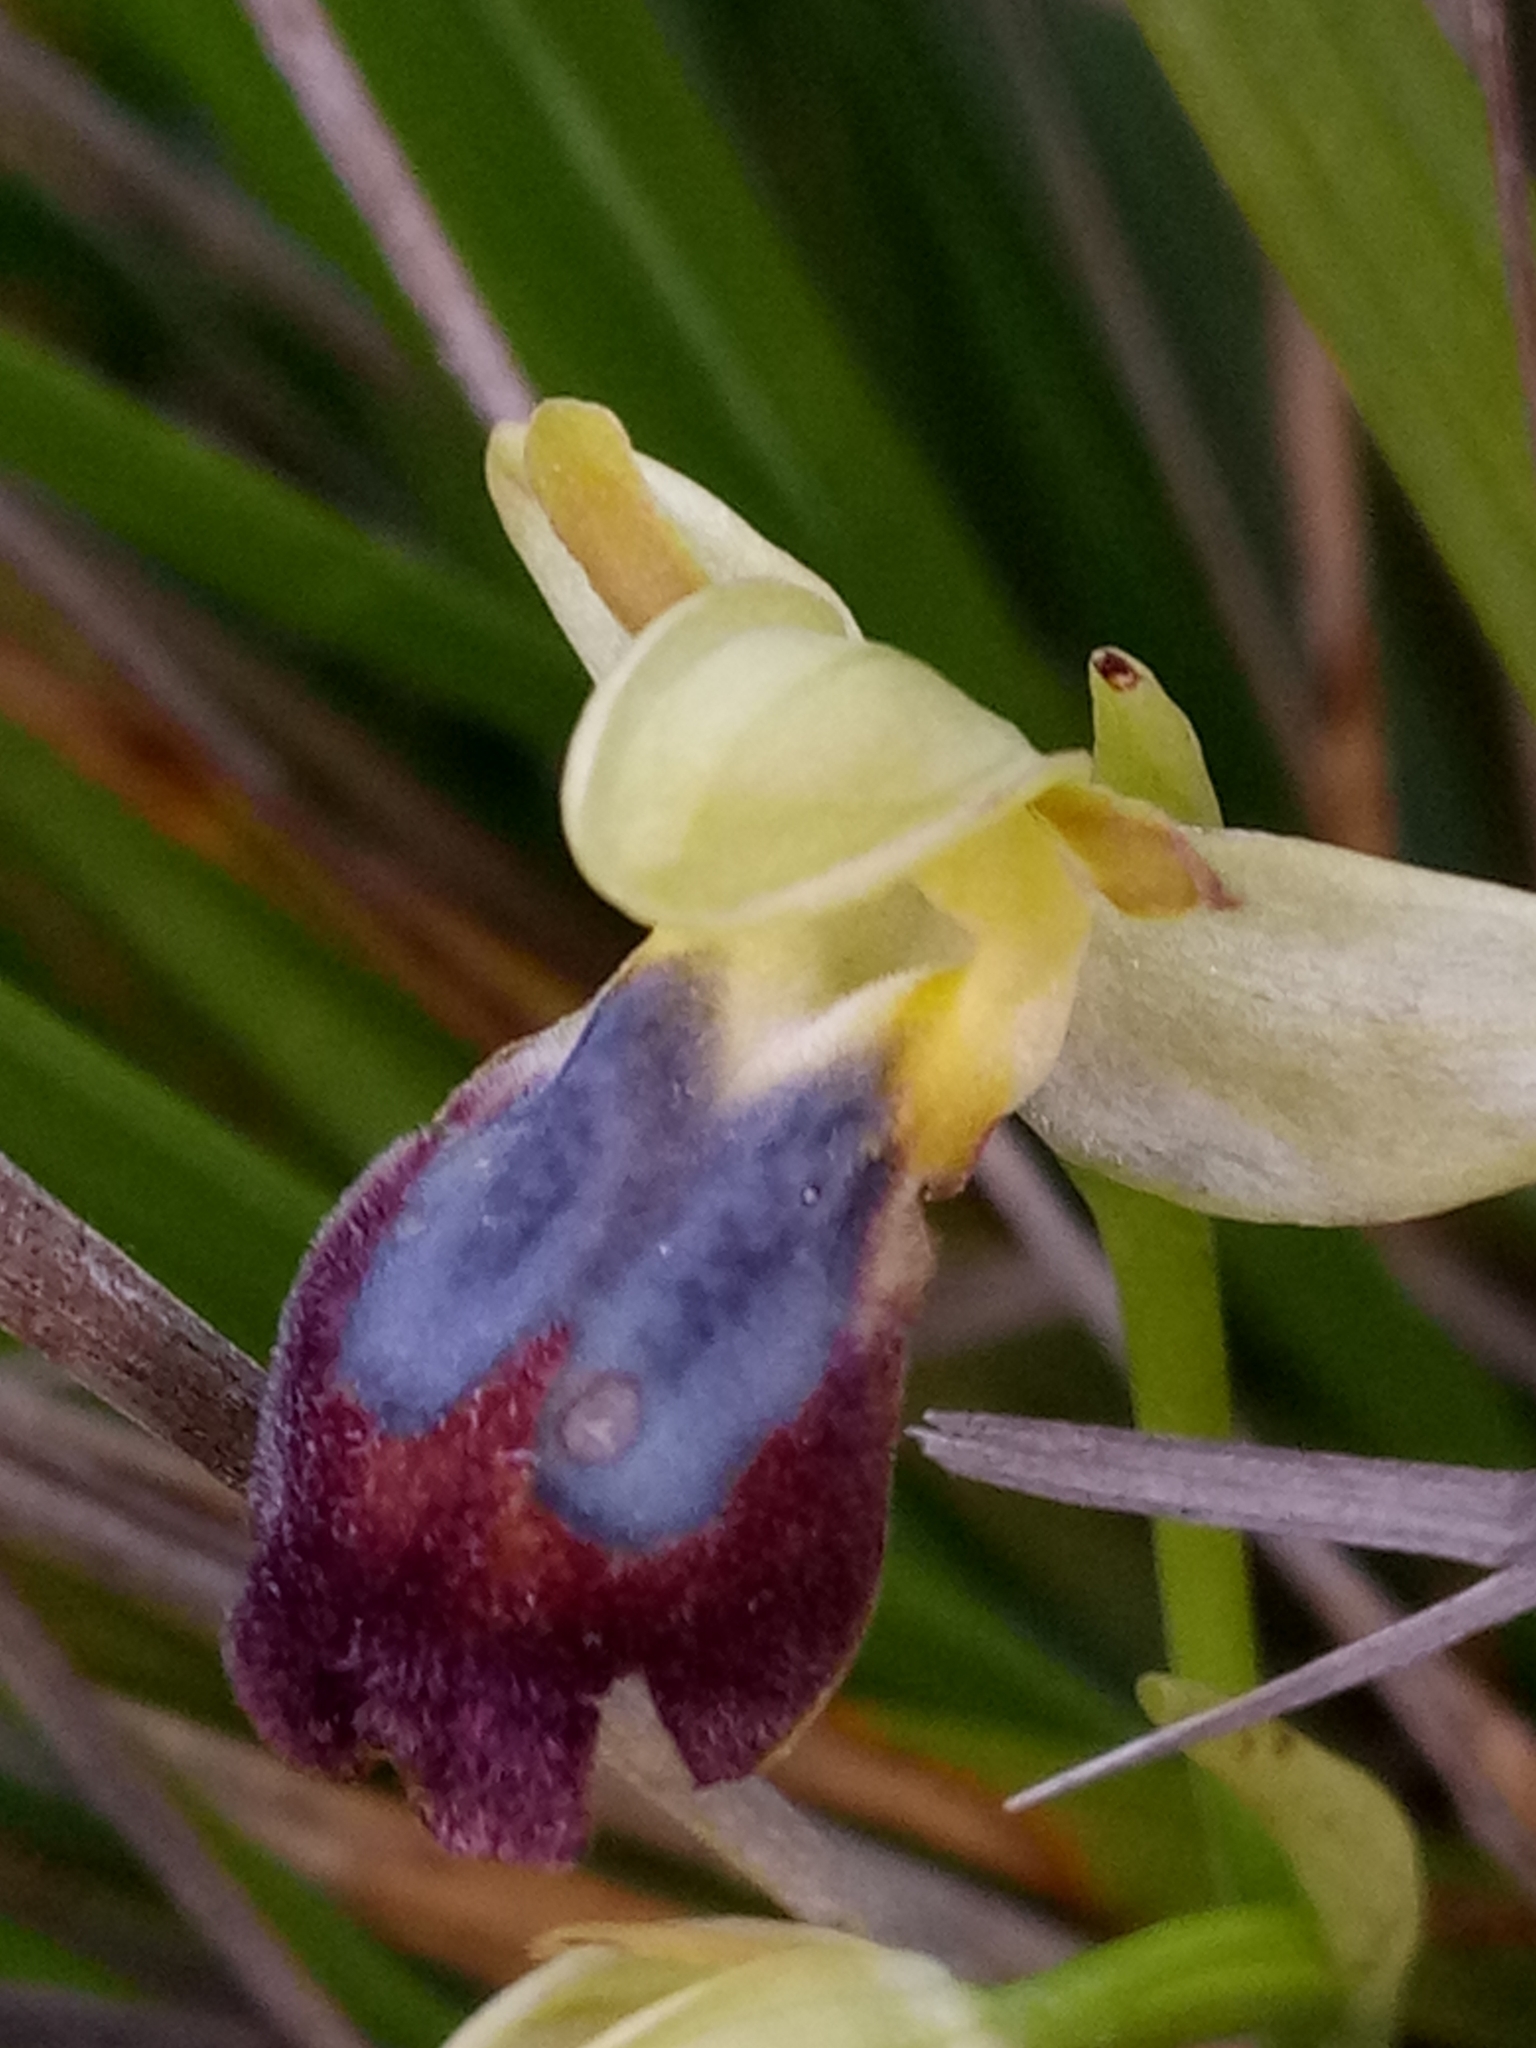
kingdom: Plantae
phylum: Tracheophyta
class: Liliopsida
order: Asparagales
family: Orchidaceae
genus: Ophrys
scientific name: Ophrys fusca
